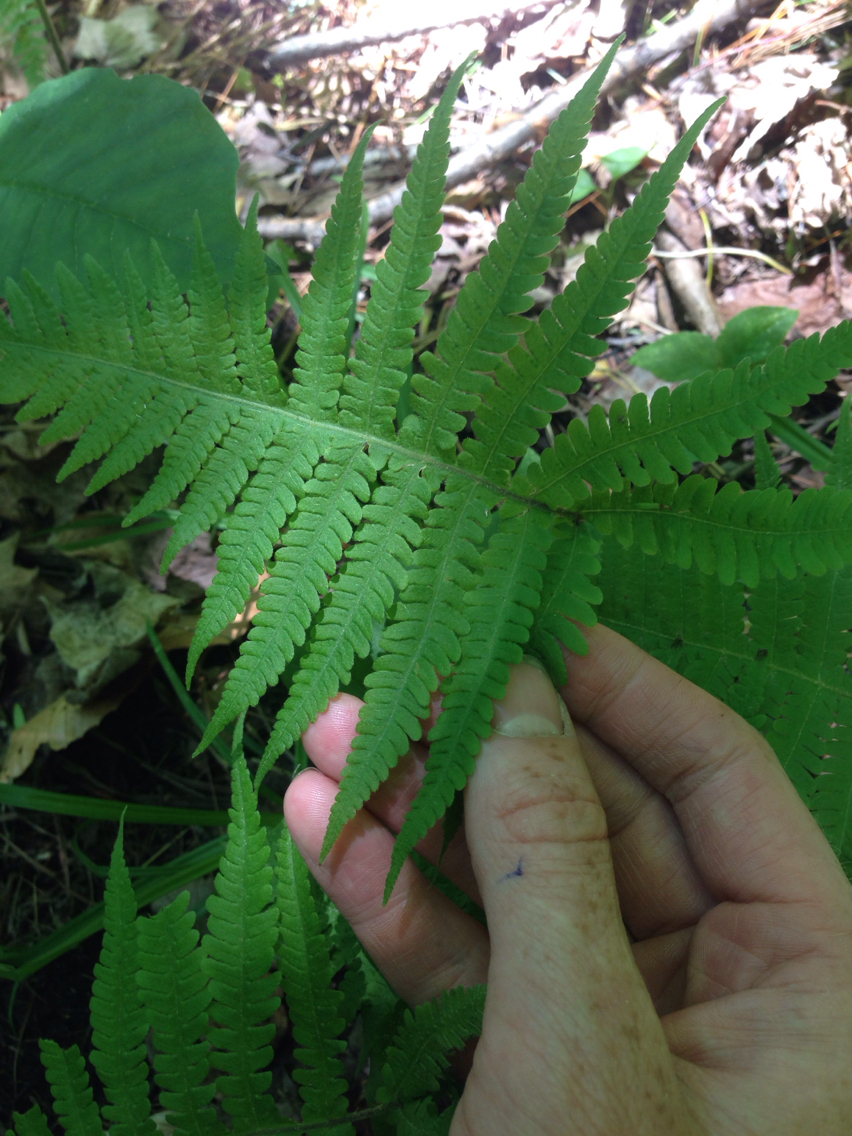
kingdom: Plantae
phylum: Tracheophyta
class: Polypodiopsida
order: Polypodiales
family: Thelypteridaceae
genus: Phegopteris
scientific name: Phegopteris connectilis
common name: Beech fern
